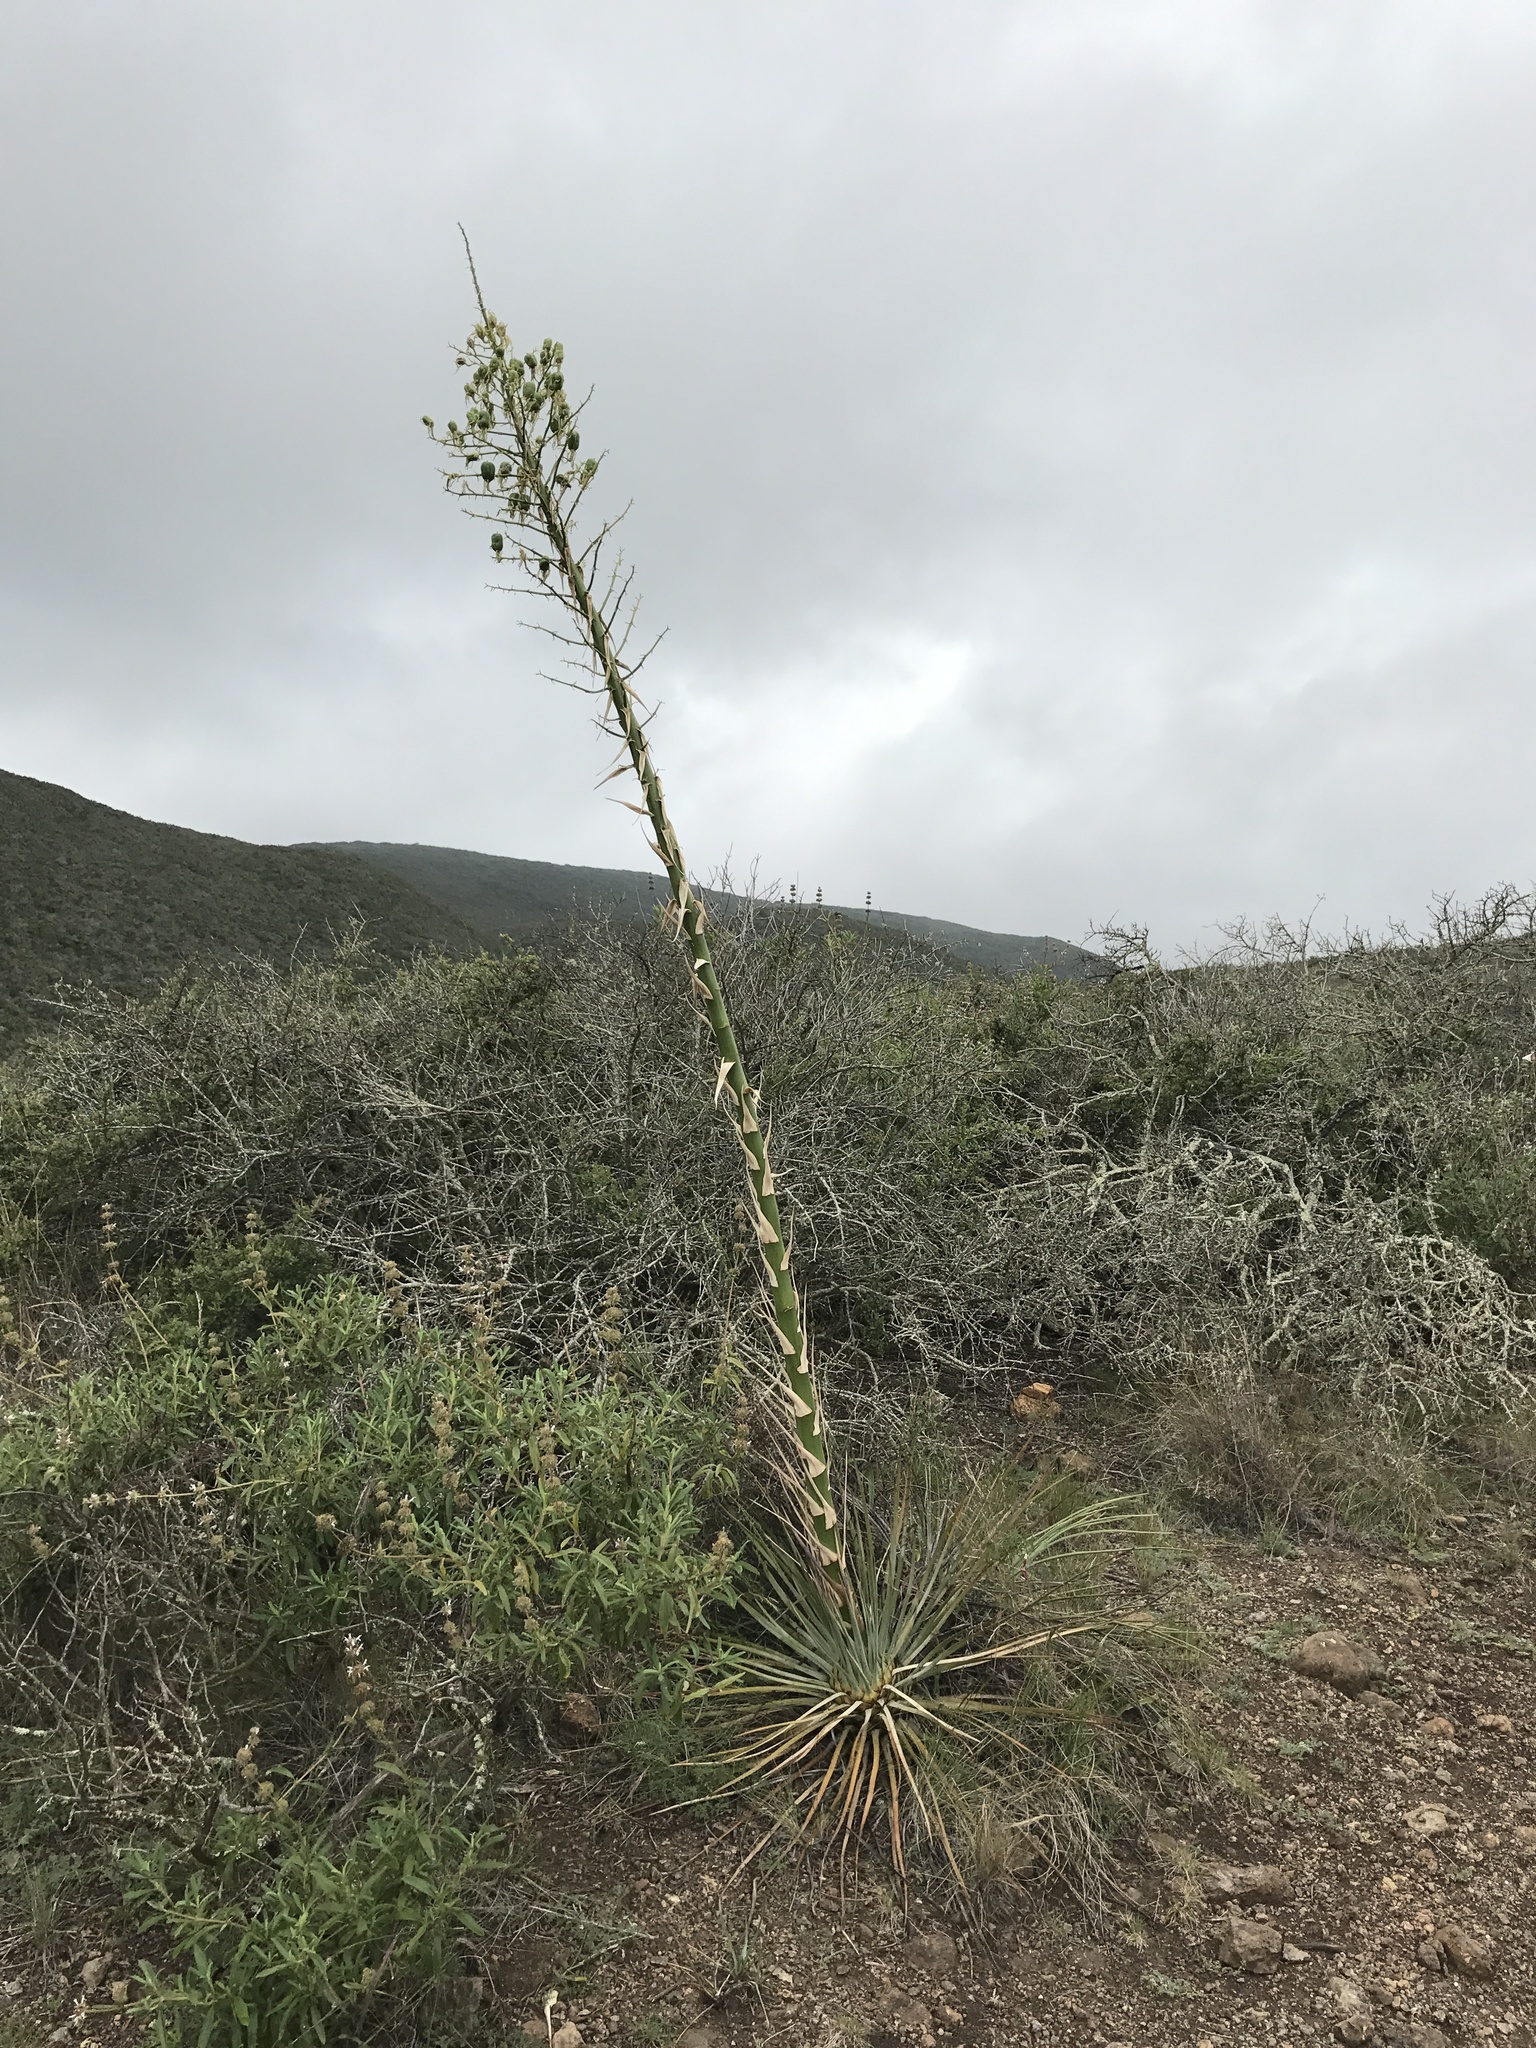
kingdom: Plantae
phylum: Tracheophyta
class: Liliopsida
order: Asparagales
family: Asparagaceae
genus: Hesperoyucca
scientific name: Hesperoyucca whipplei
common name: Our lord's-candle
